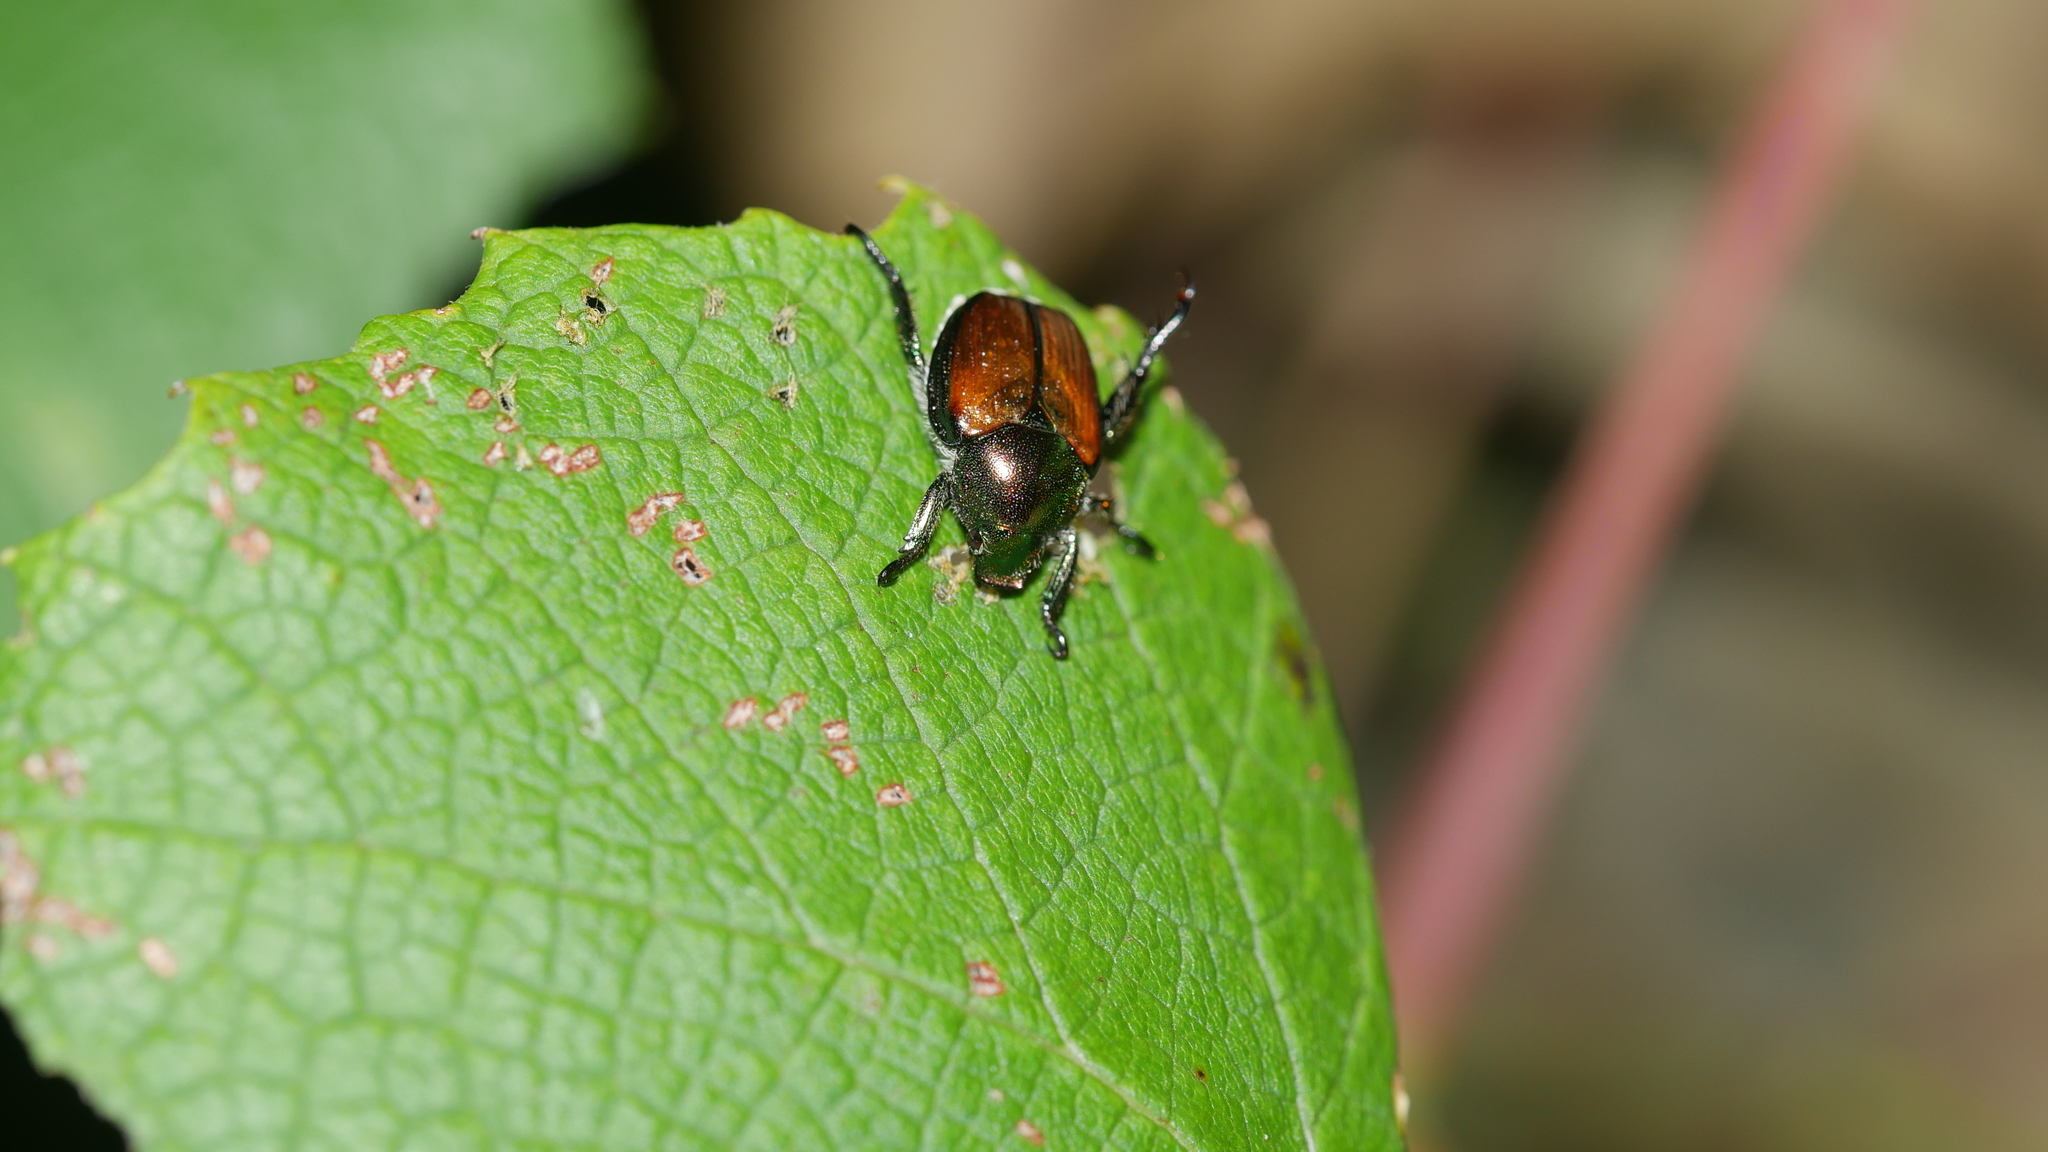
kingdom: Animalia
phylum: Arthropoda
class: Insecta
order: Coleoptera
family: Scarabaeidae
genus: Popillia
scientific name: Popillia japonica
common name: Japanese beetle
